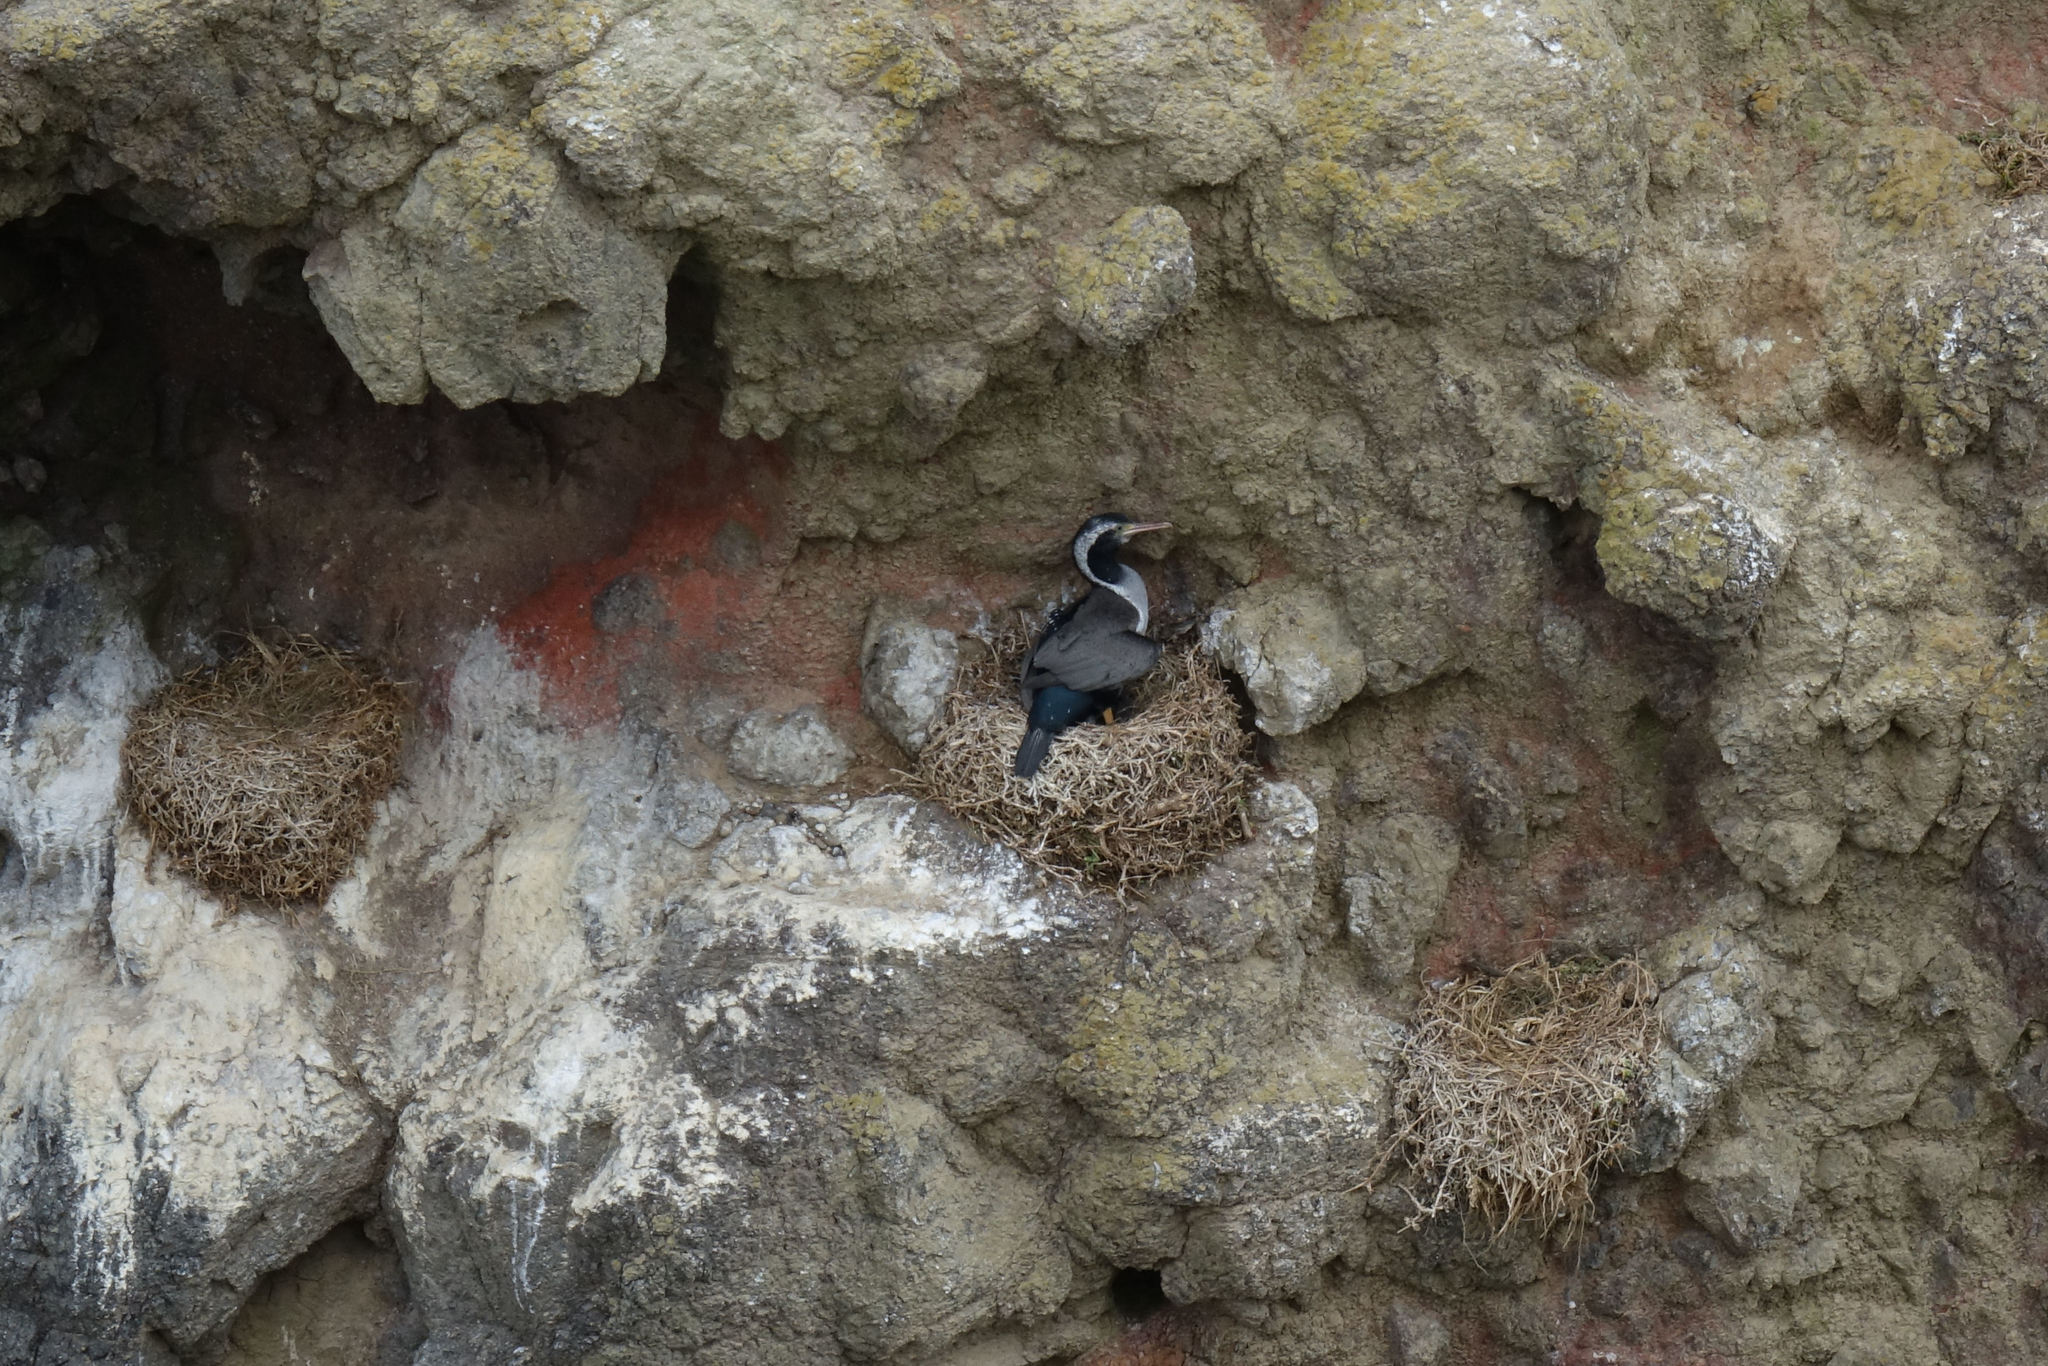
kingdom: Animalia
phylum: Chordata
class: Aves
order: Suliformes
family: Phalacrocoracidae
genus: Phalacrocorax
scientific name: Phalacrocorax punctatus
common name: Spotted shag
